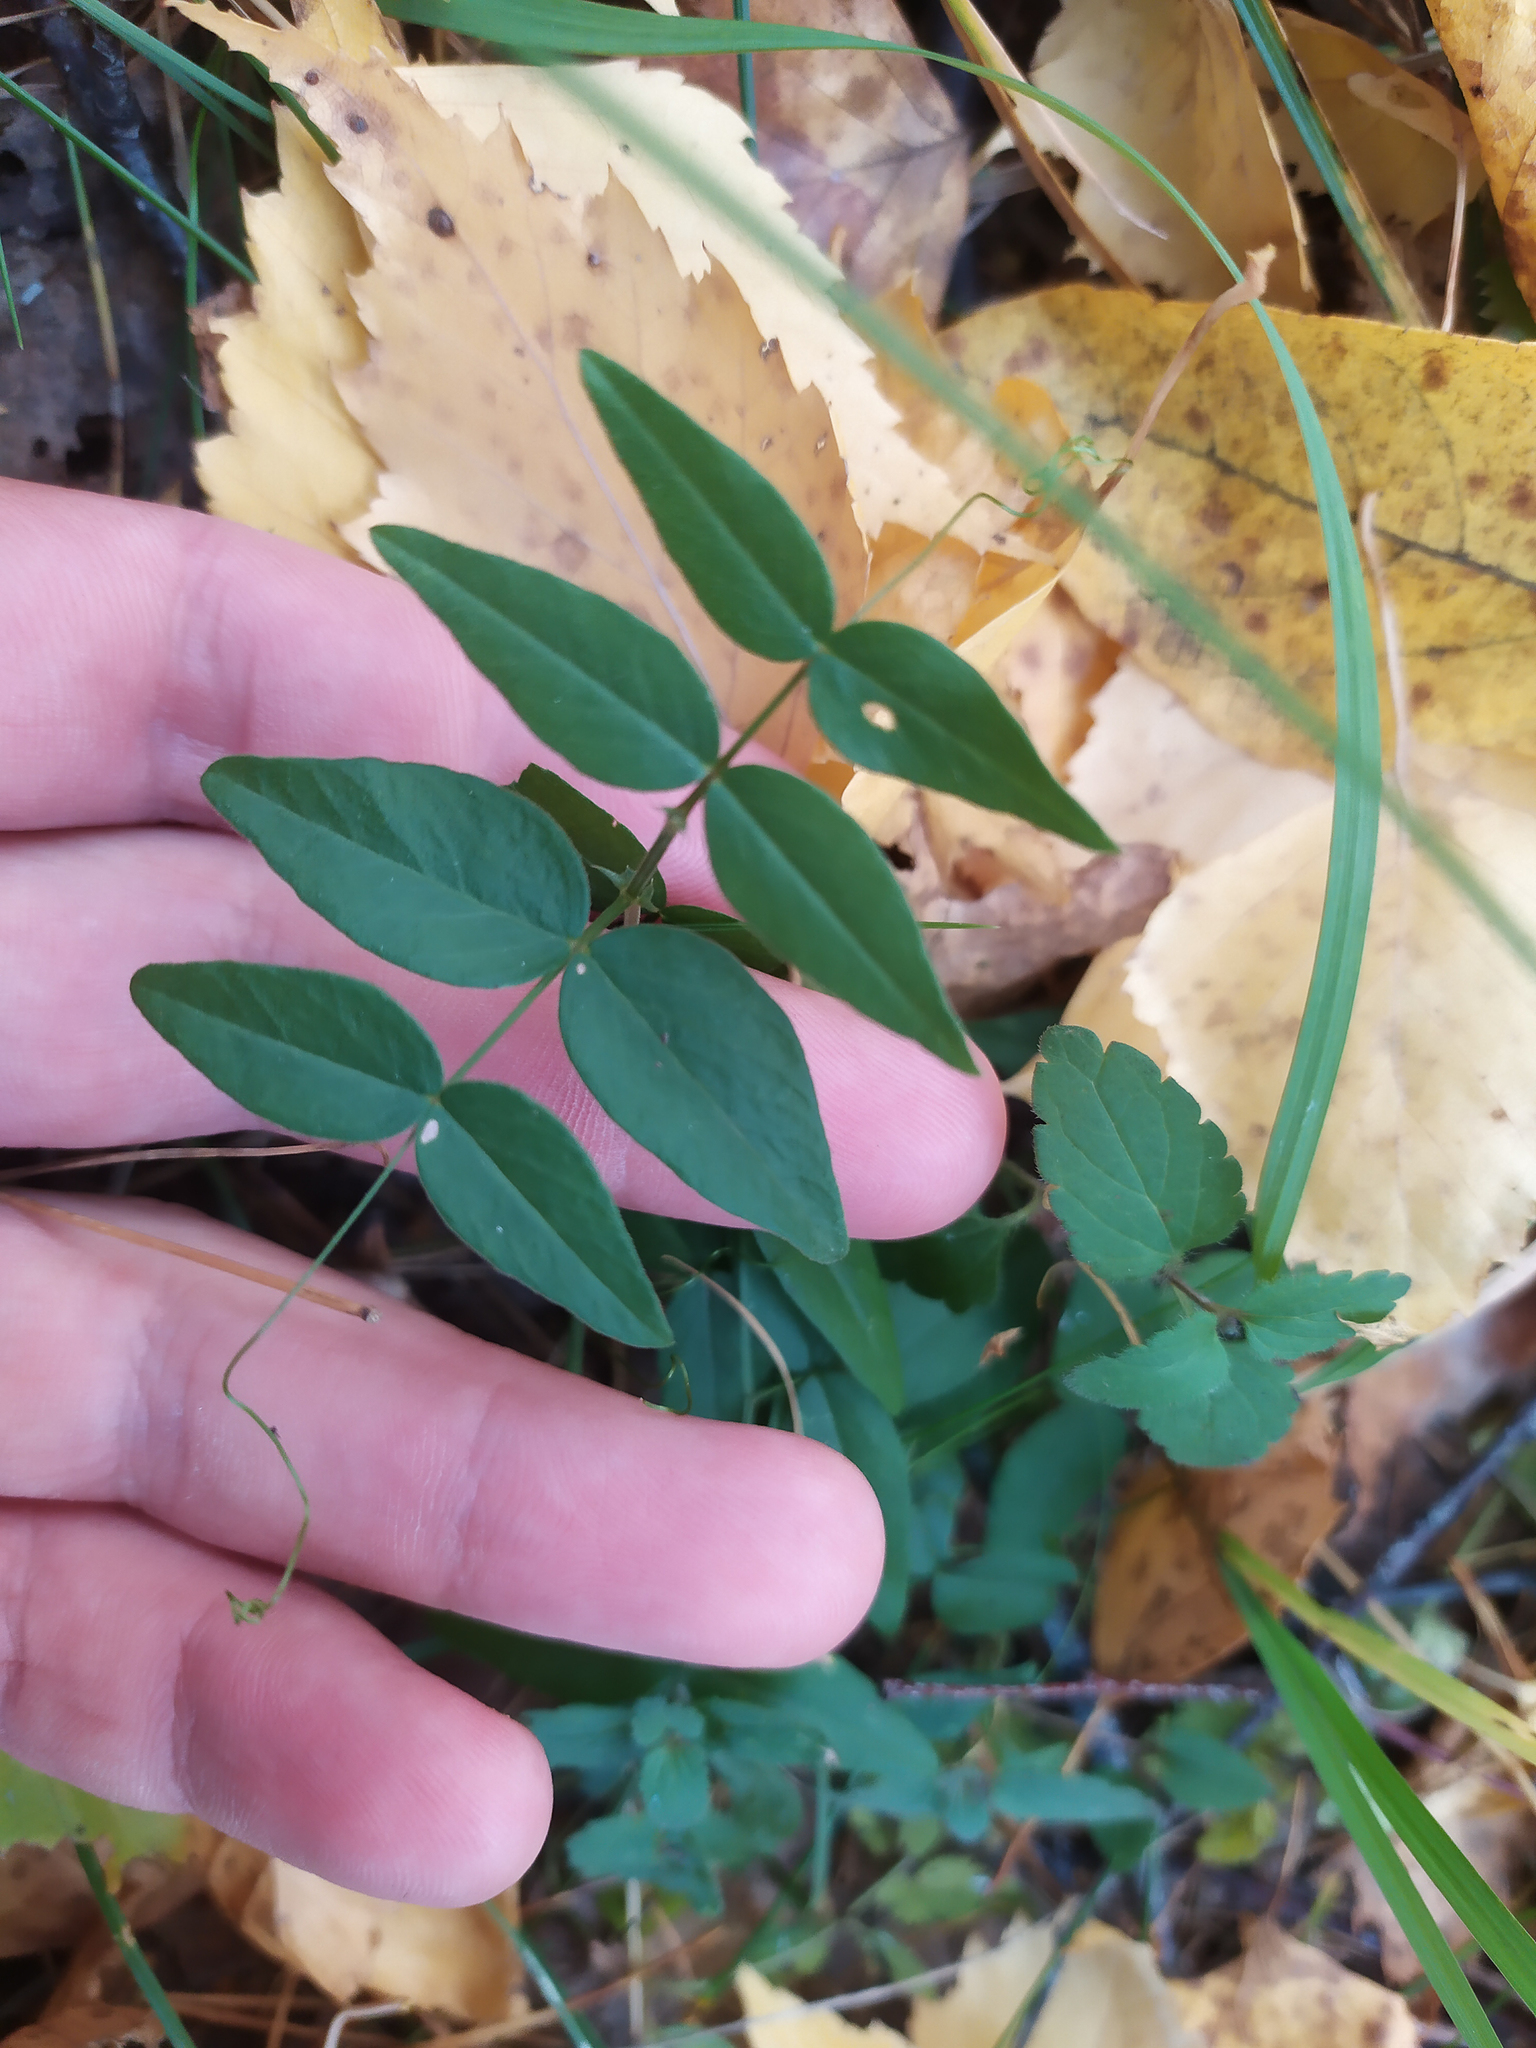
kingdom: Plantae
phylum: Tracheophyta
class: Magnoliopsida
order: Fabales
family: Fabaceae
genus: Vicia
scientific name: Vicia sepium
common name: Bush vetch
